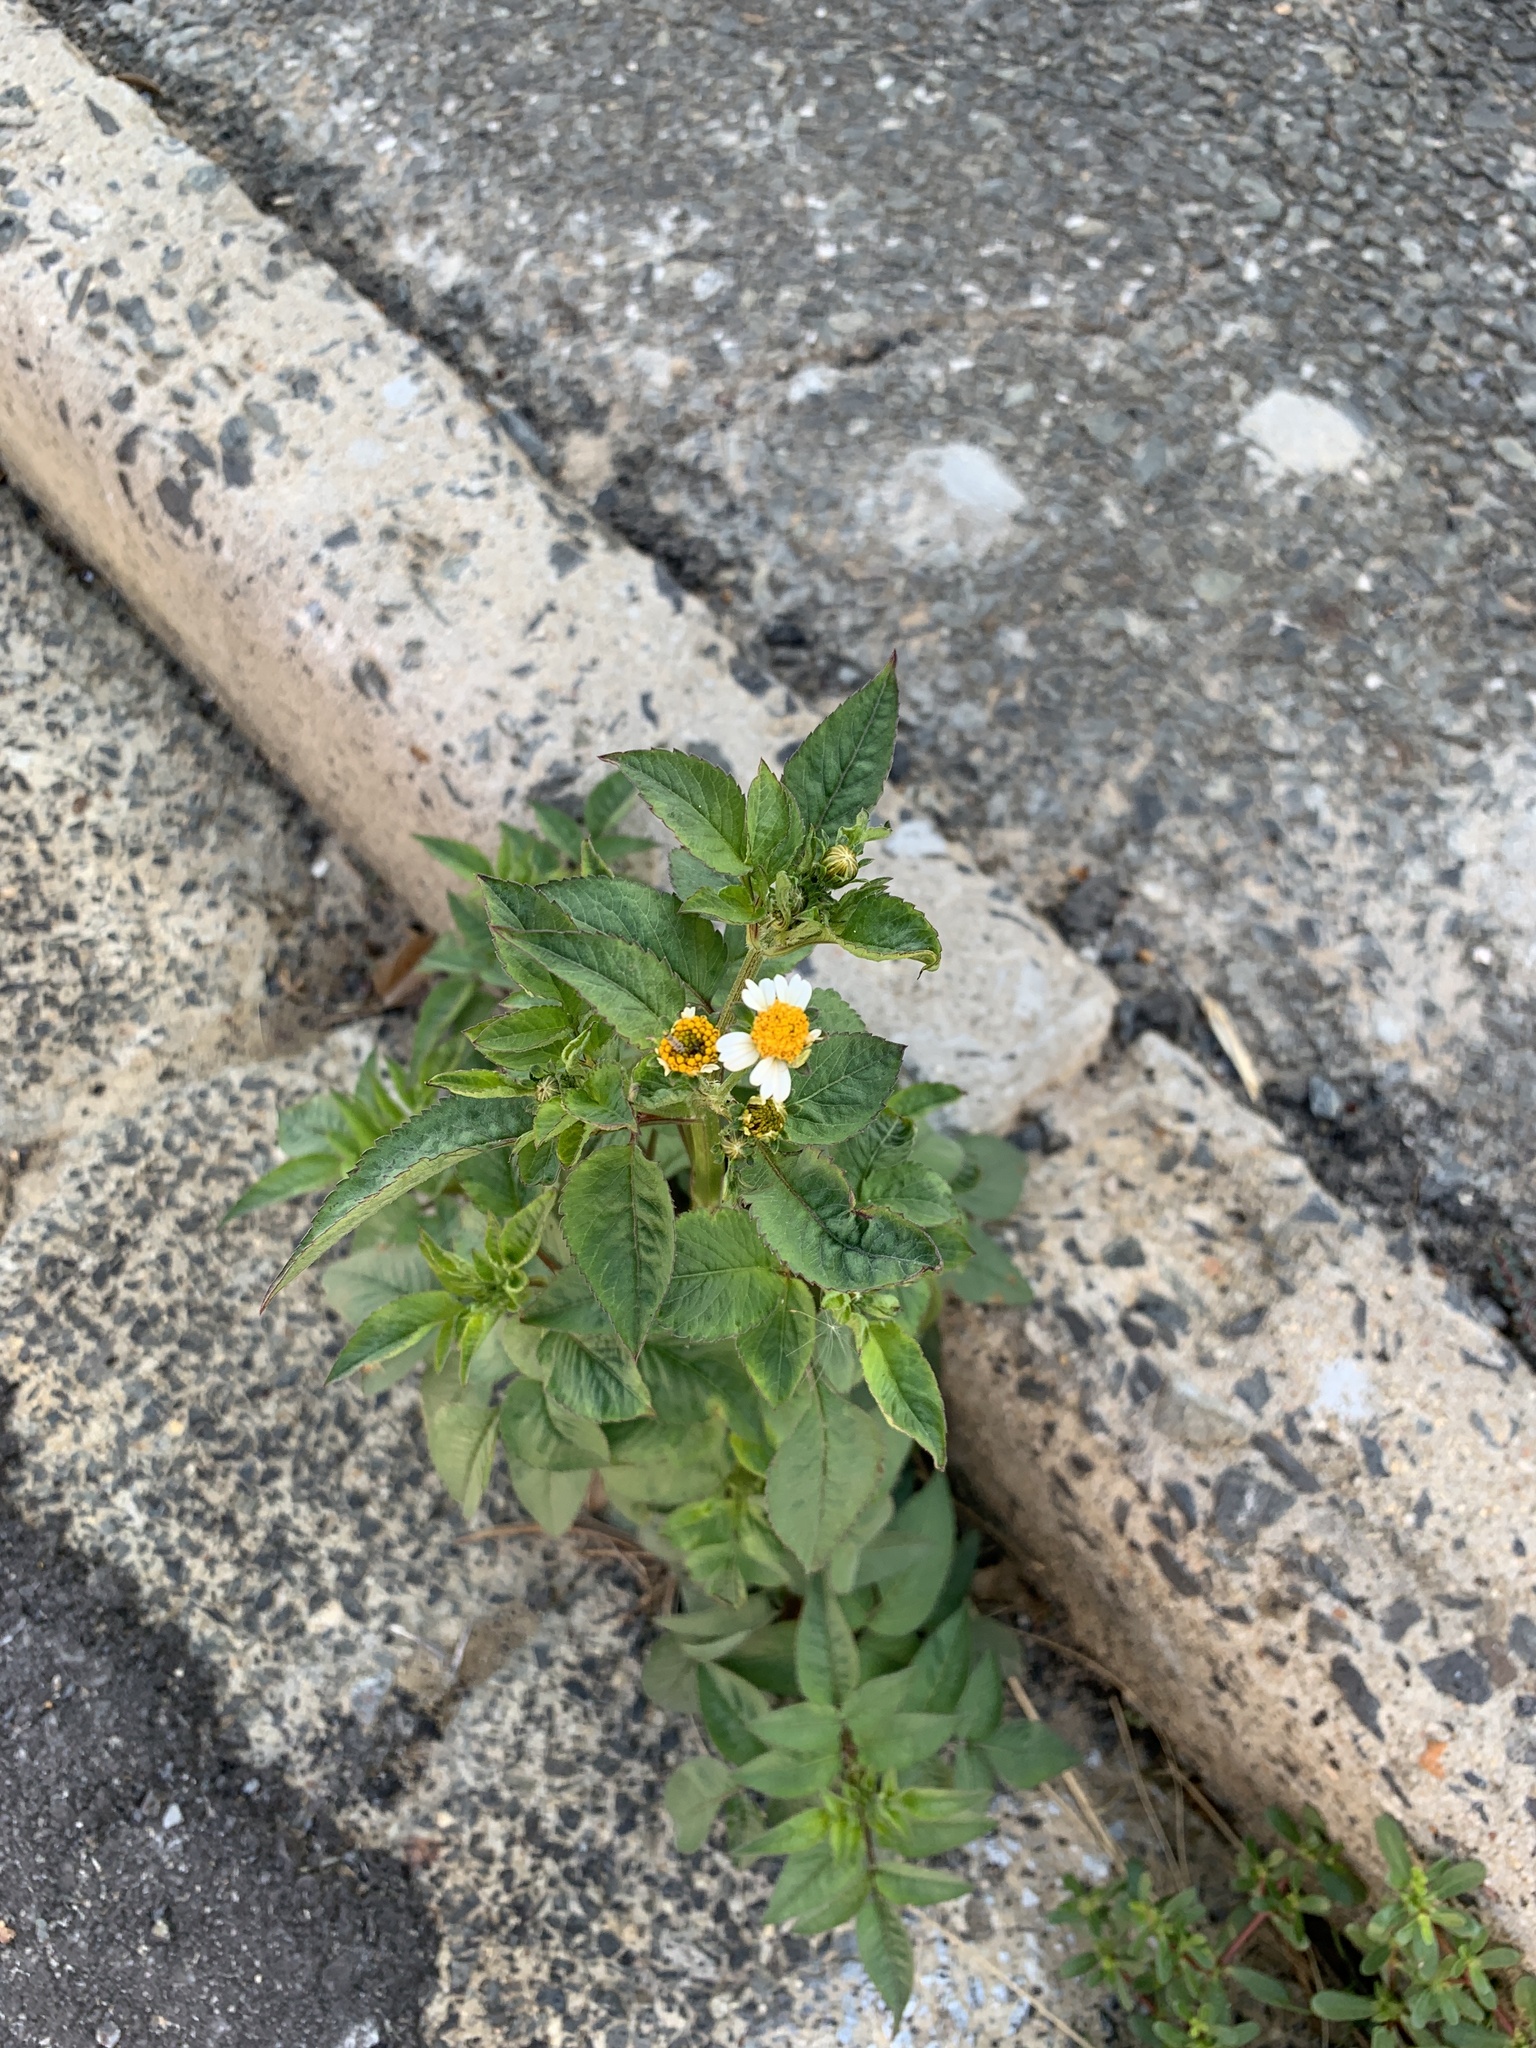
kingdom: Plantae
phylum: Tracheophyta
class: Magnoliopsida
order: Asterales
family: Asteraceae
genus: Bidens
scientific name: Bidens pilosa
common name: Black-jack
